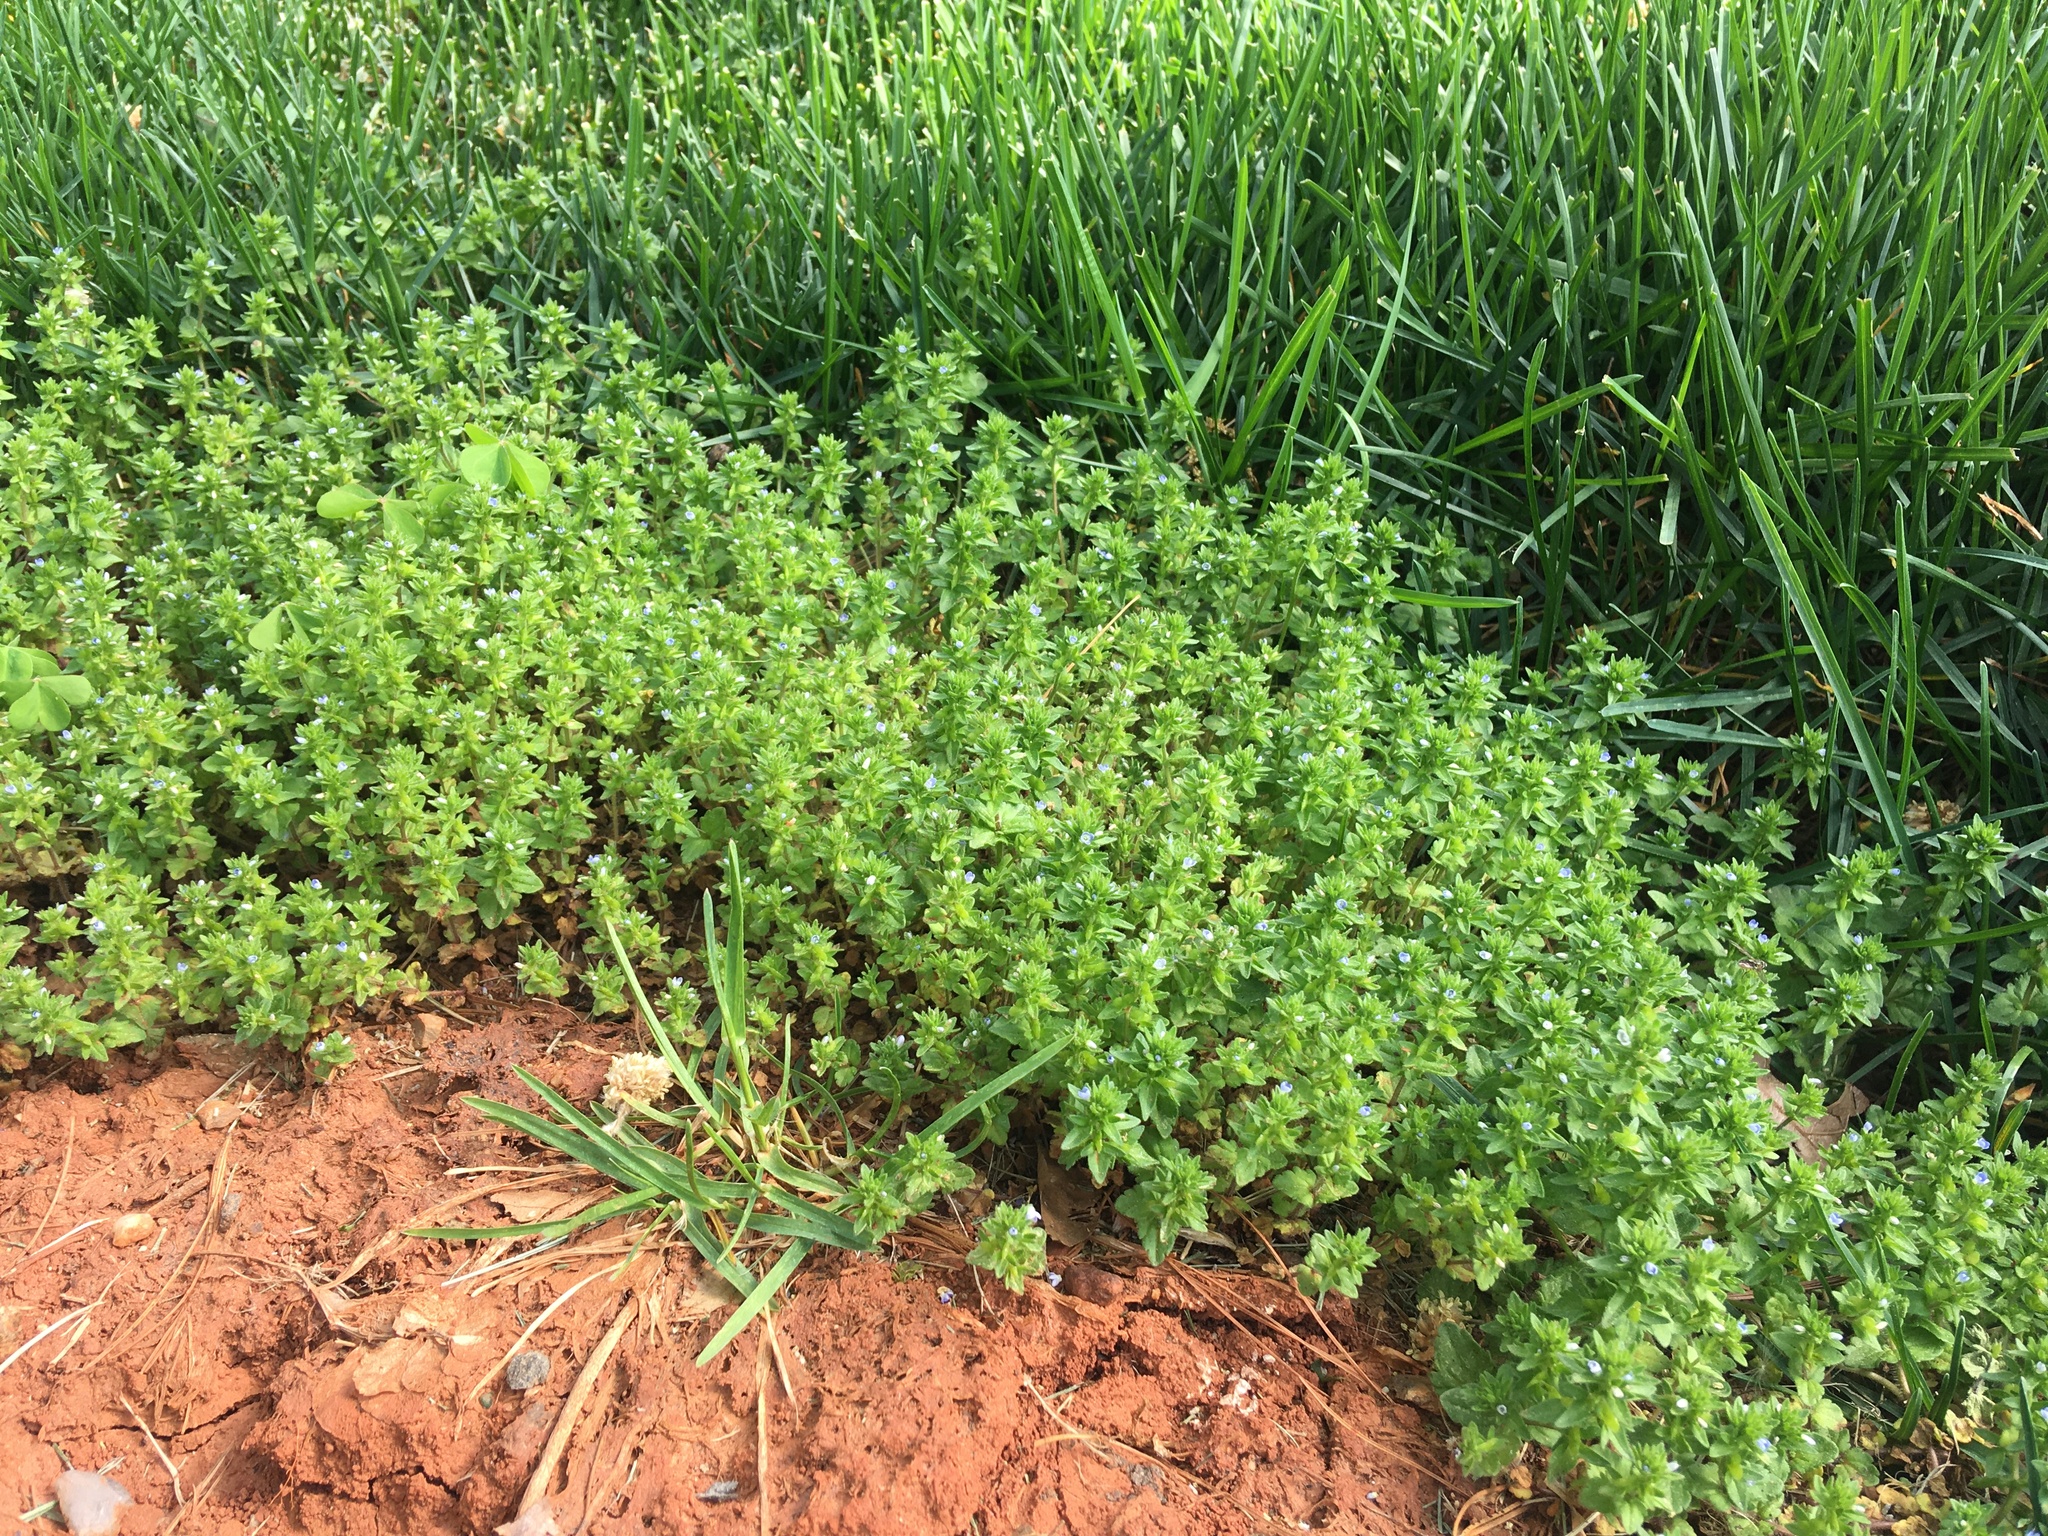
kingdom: Plantae
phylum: Tracheophyta
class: Magnoliopsida
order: Lamiales
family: Plantaginaceae
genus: Veronica
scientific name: Veronica arvensis
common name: Corn speedwell
